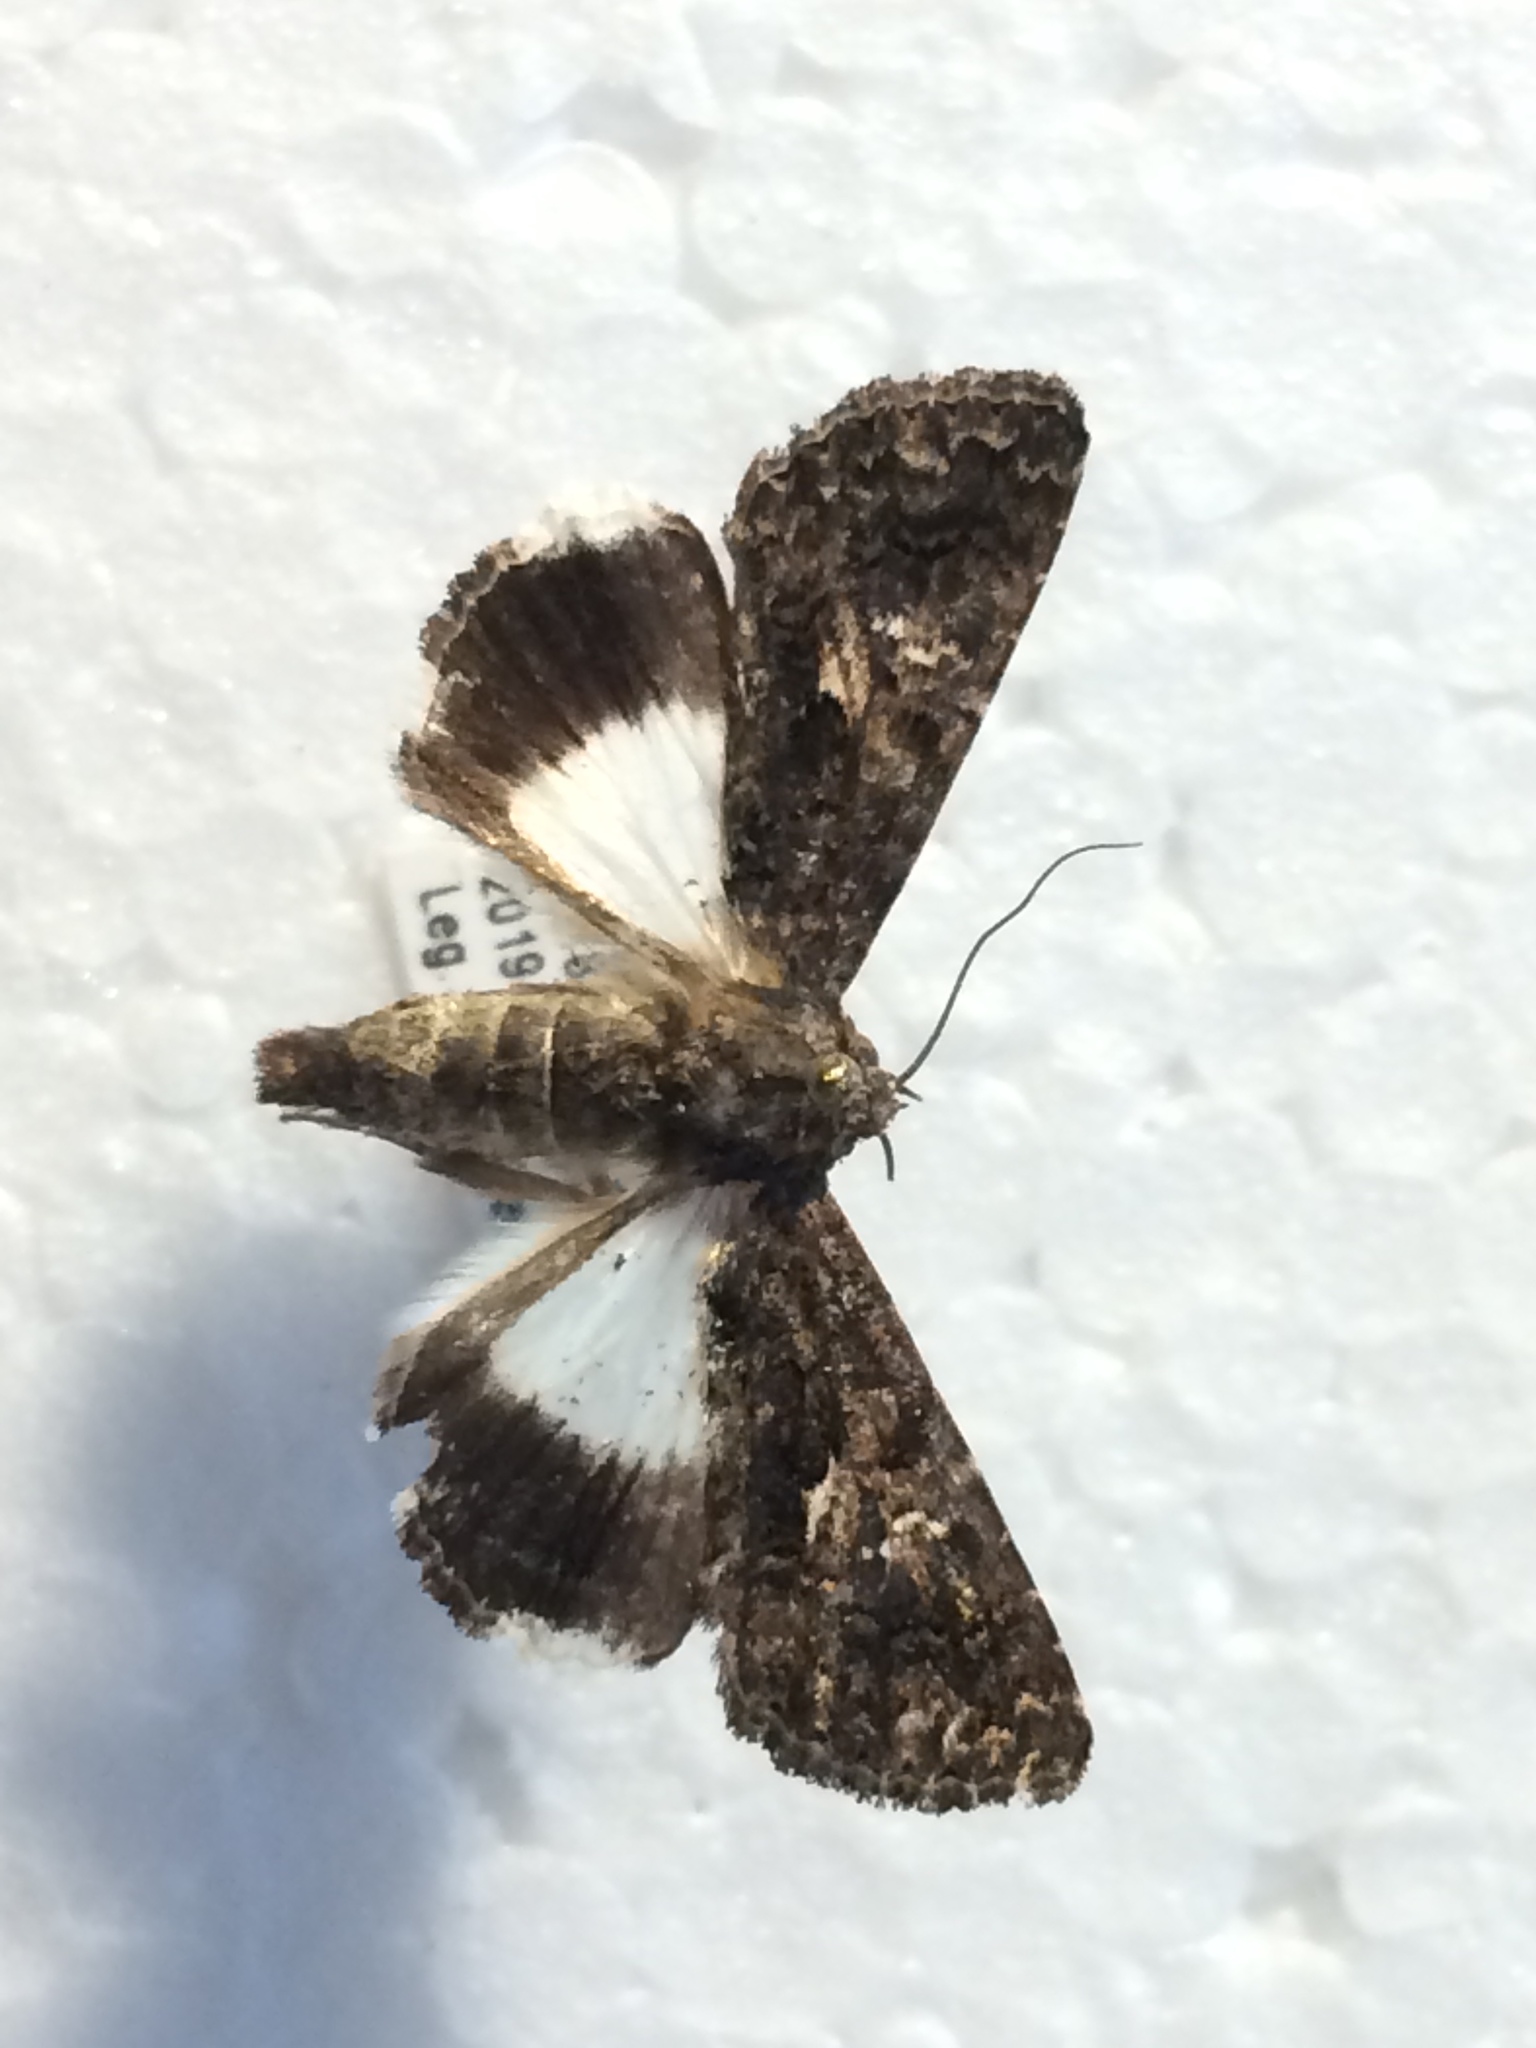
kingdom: Animalia
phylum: Arthropoda
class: Insecta
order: Lepidoptera
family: Noctuidae
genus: Aedia
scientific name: Aedia leucomelas
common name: Sorcerer
